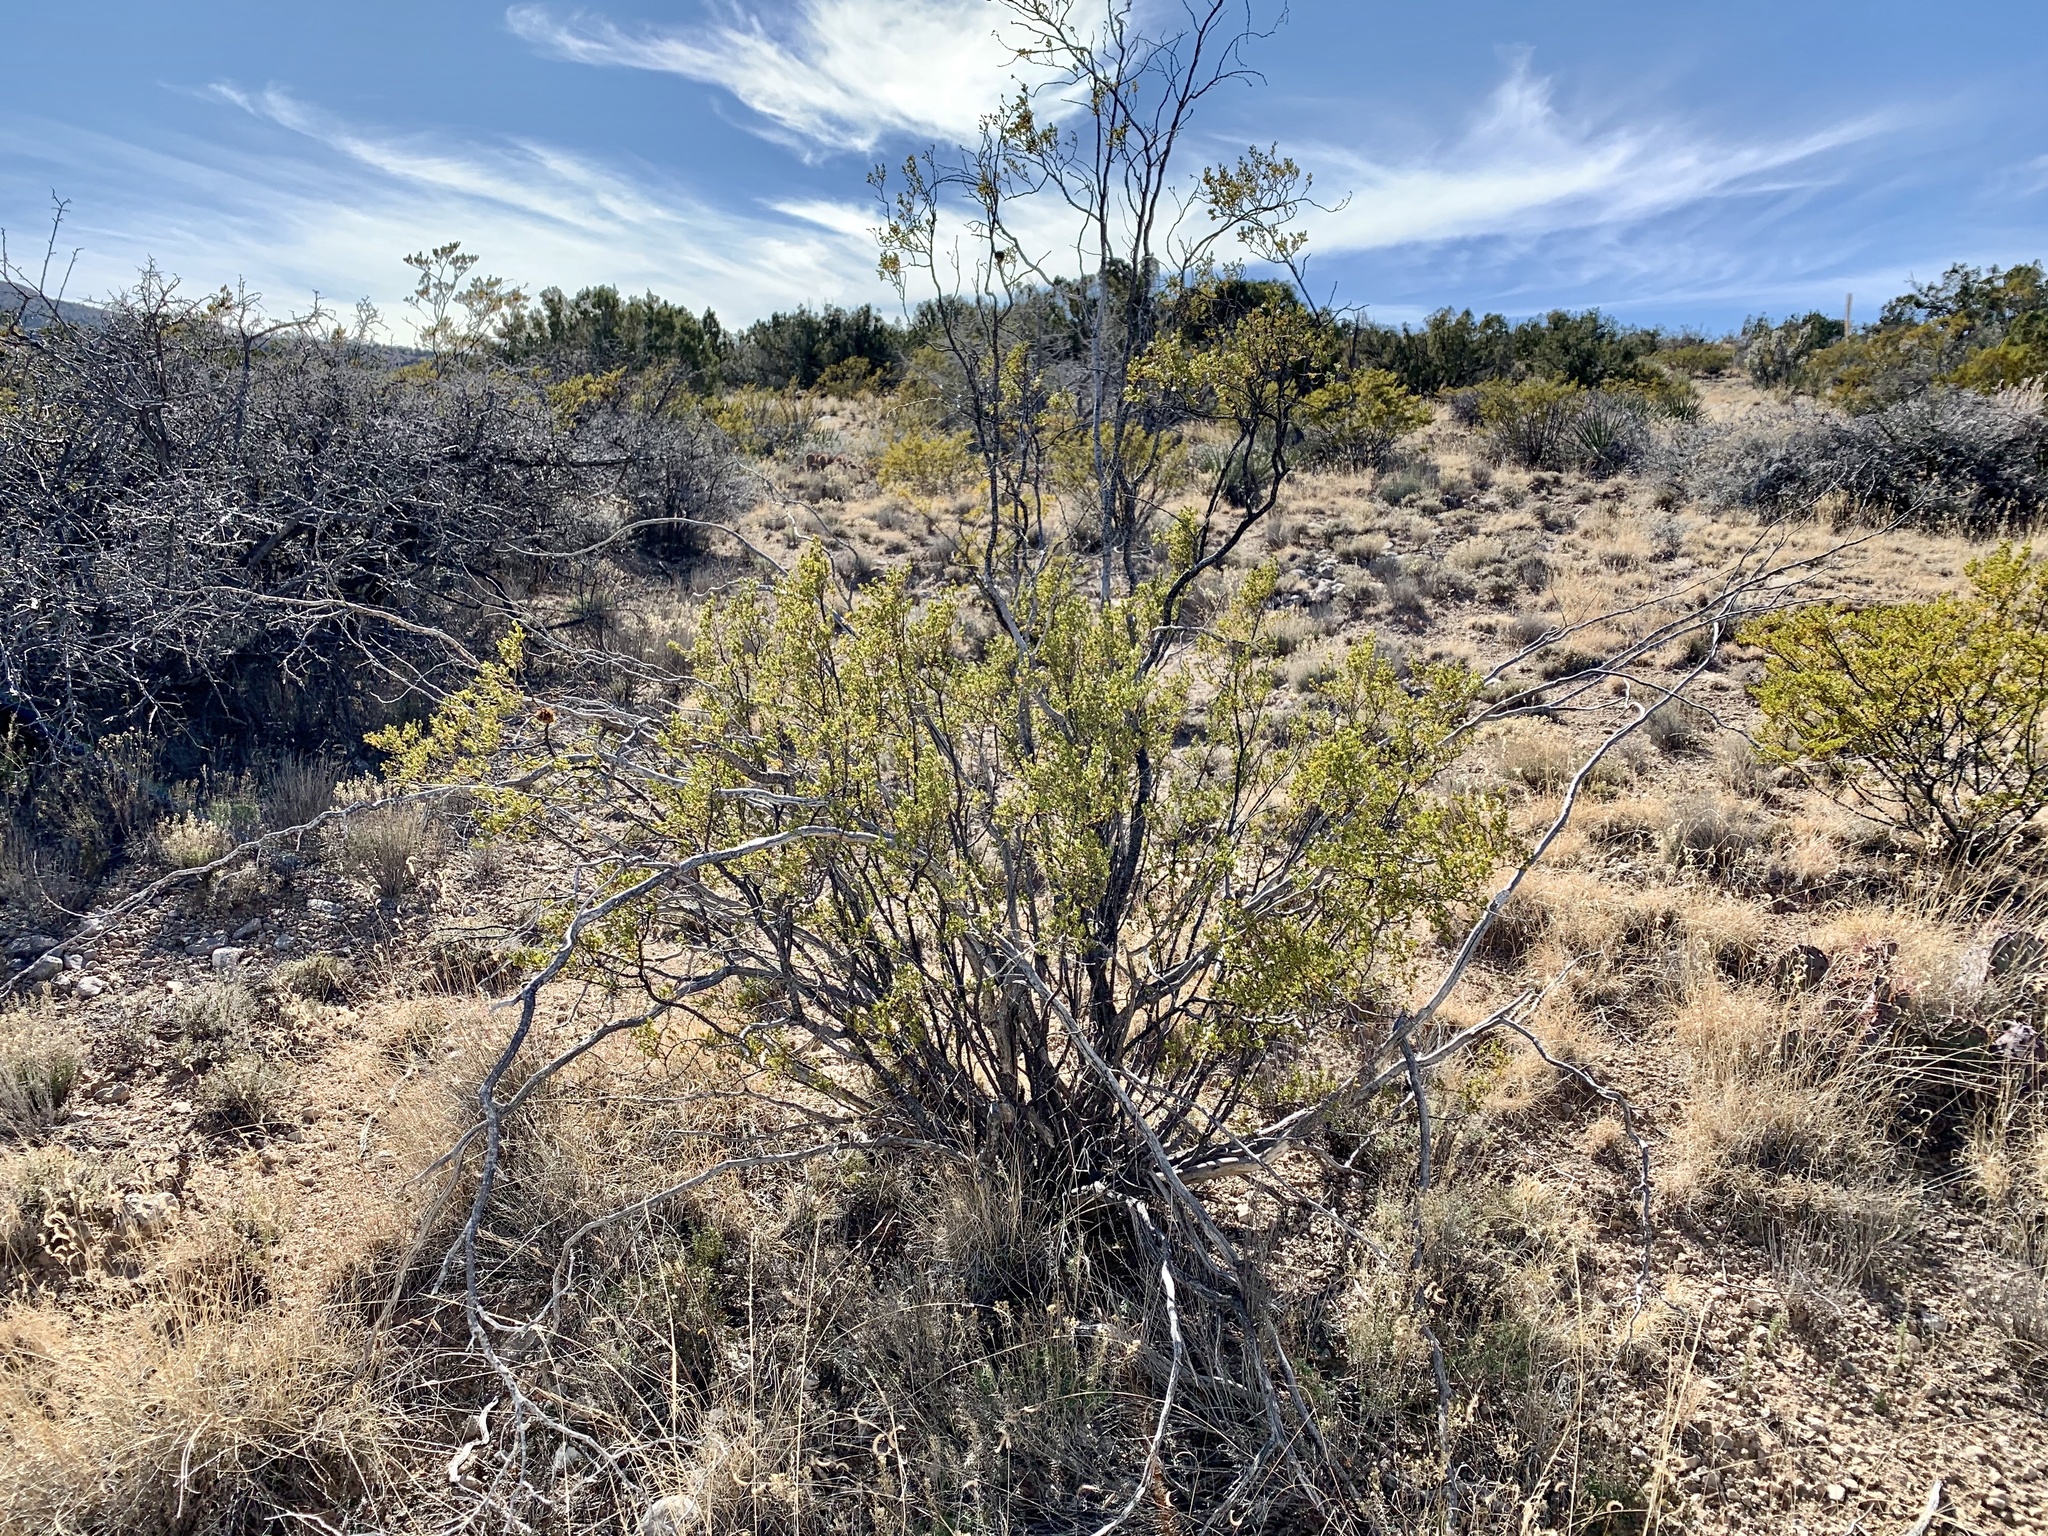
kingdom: Plantae
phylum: Tracheophyta
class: Magnoliopsida
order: Zygophyllales
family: Zygophyllaceae
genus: Larrea
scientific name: Larrea tridentata
